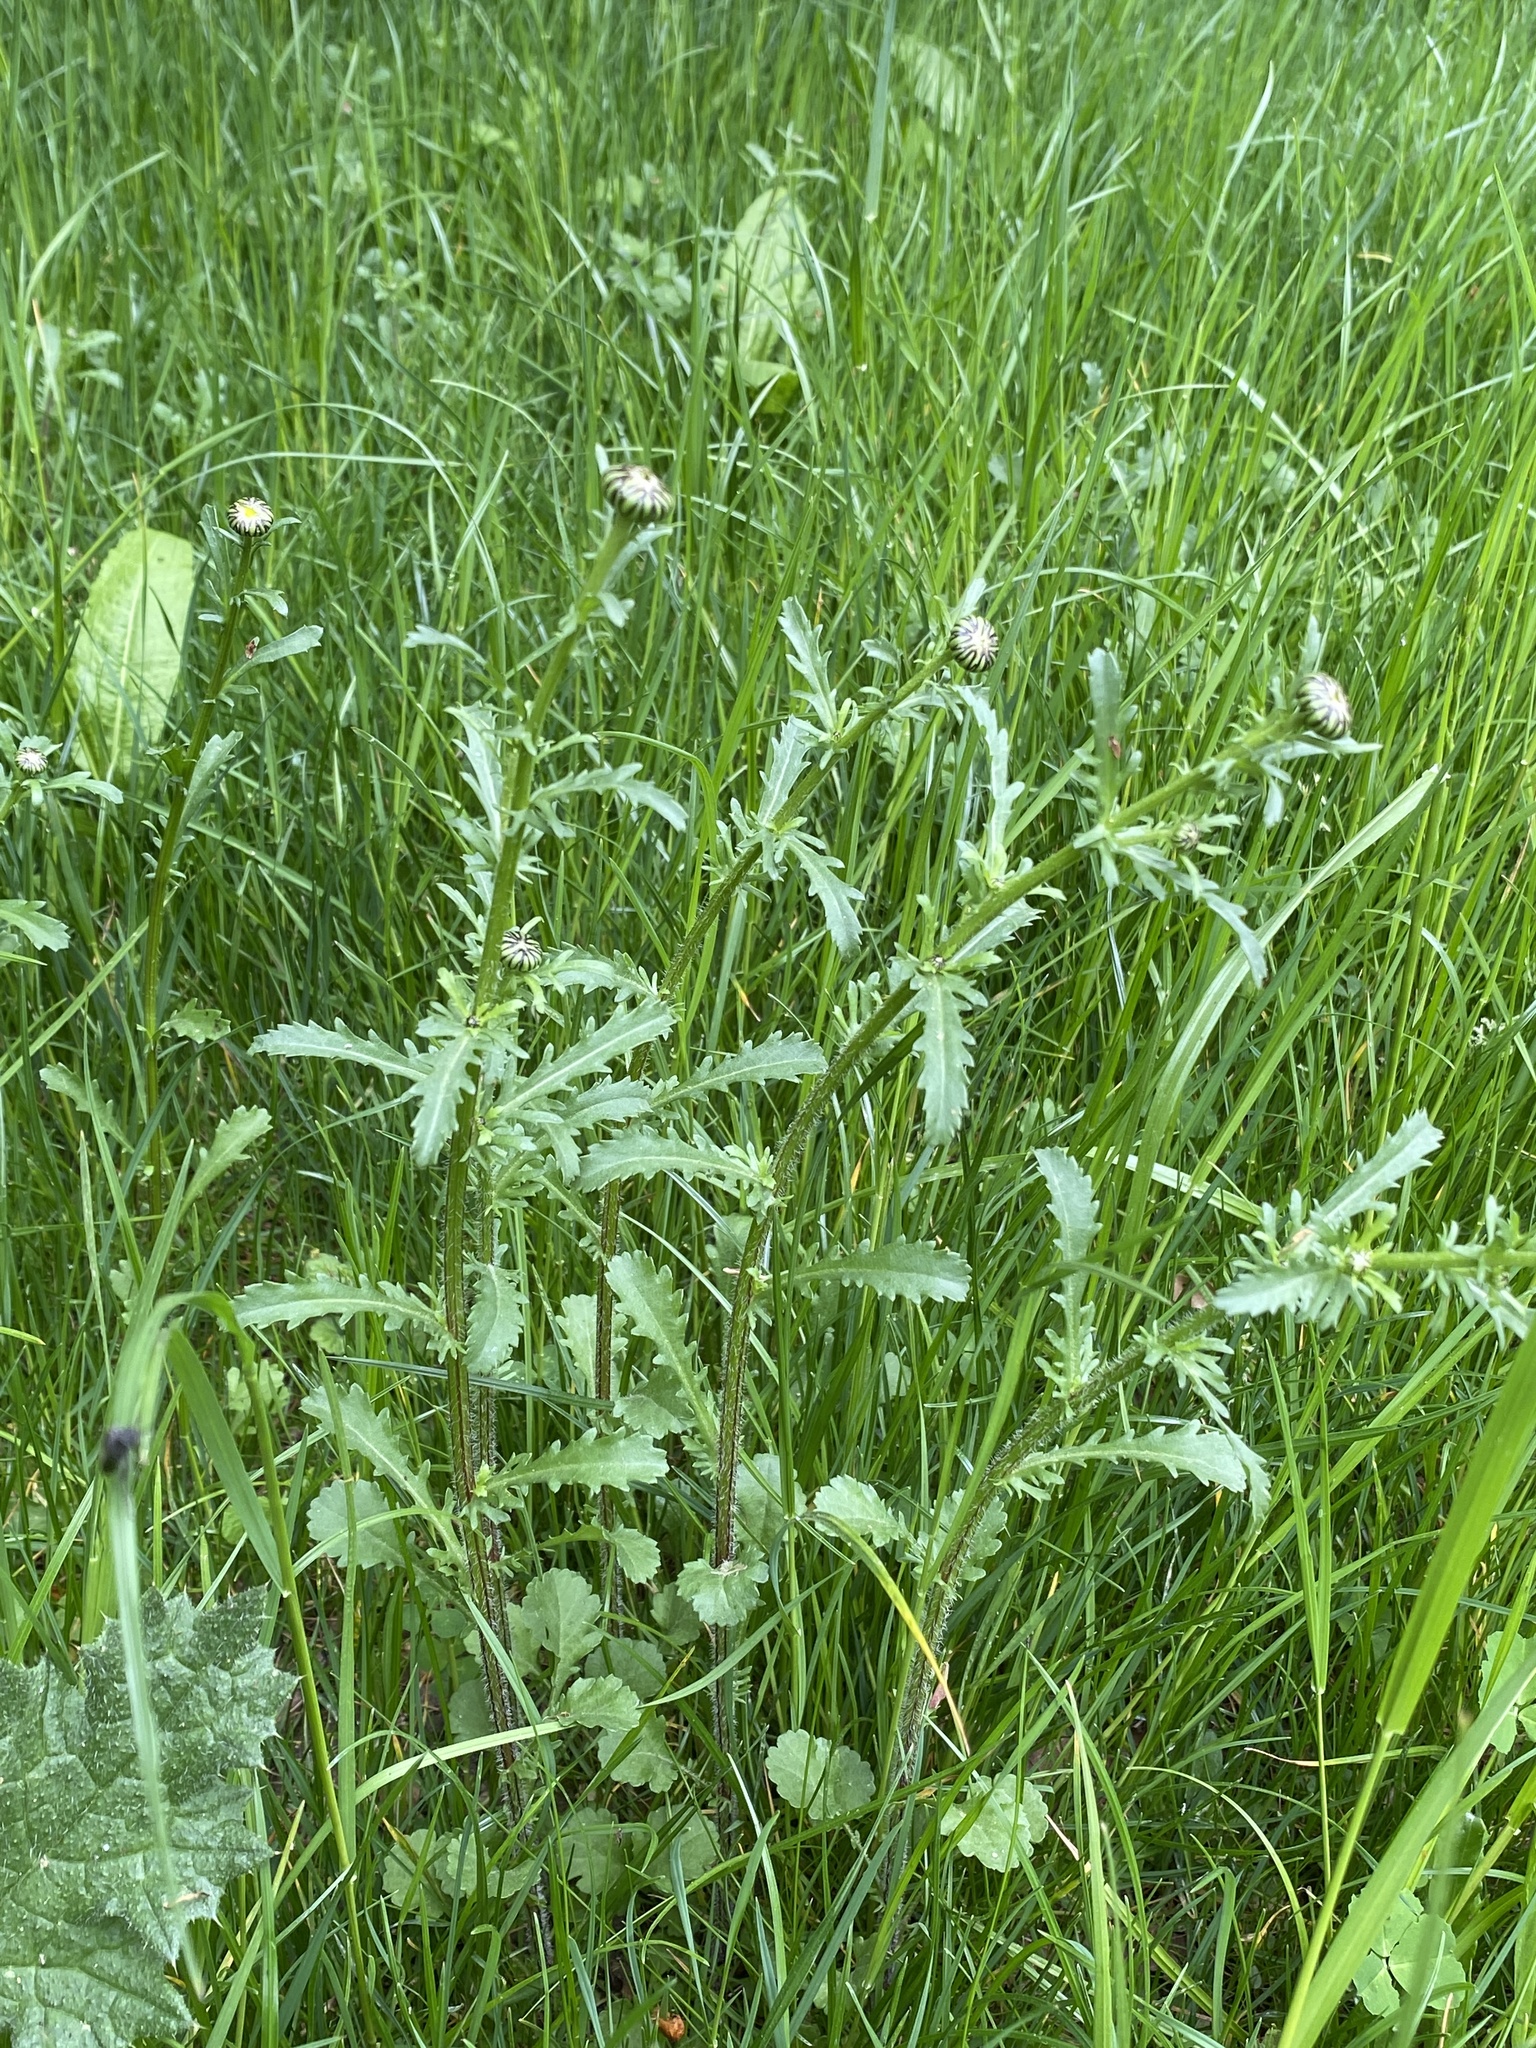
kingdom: Plantae
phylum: Tracheophyta
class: Magnoliopsida
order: Asterales
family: Asteraceae
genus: Leucanthemum
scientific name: Leucanthemum vulgare
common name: Oxeye daisy
